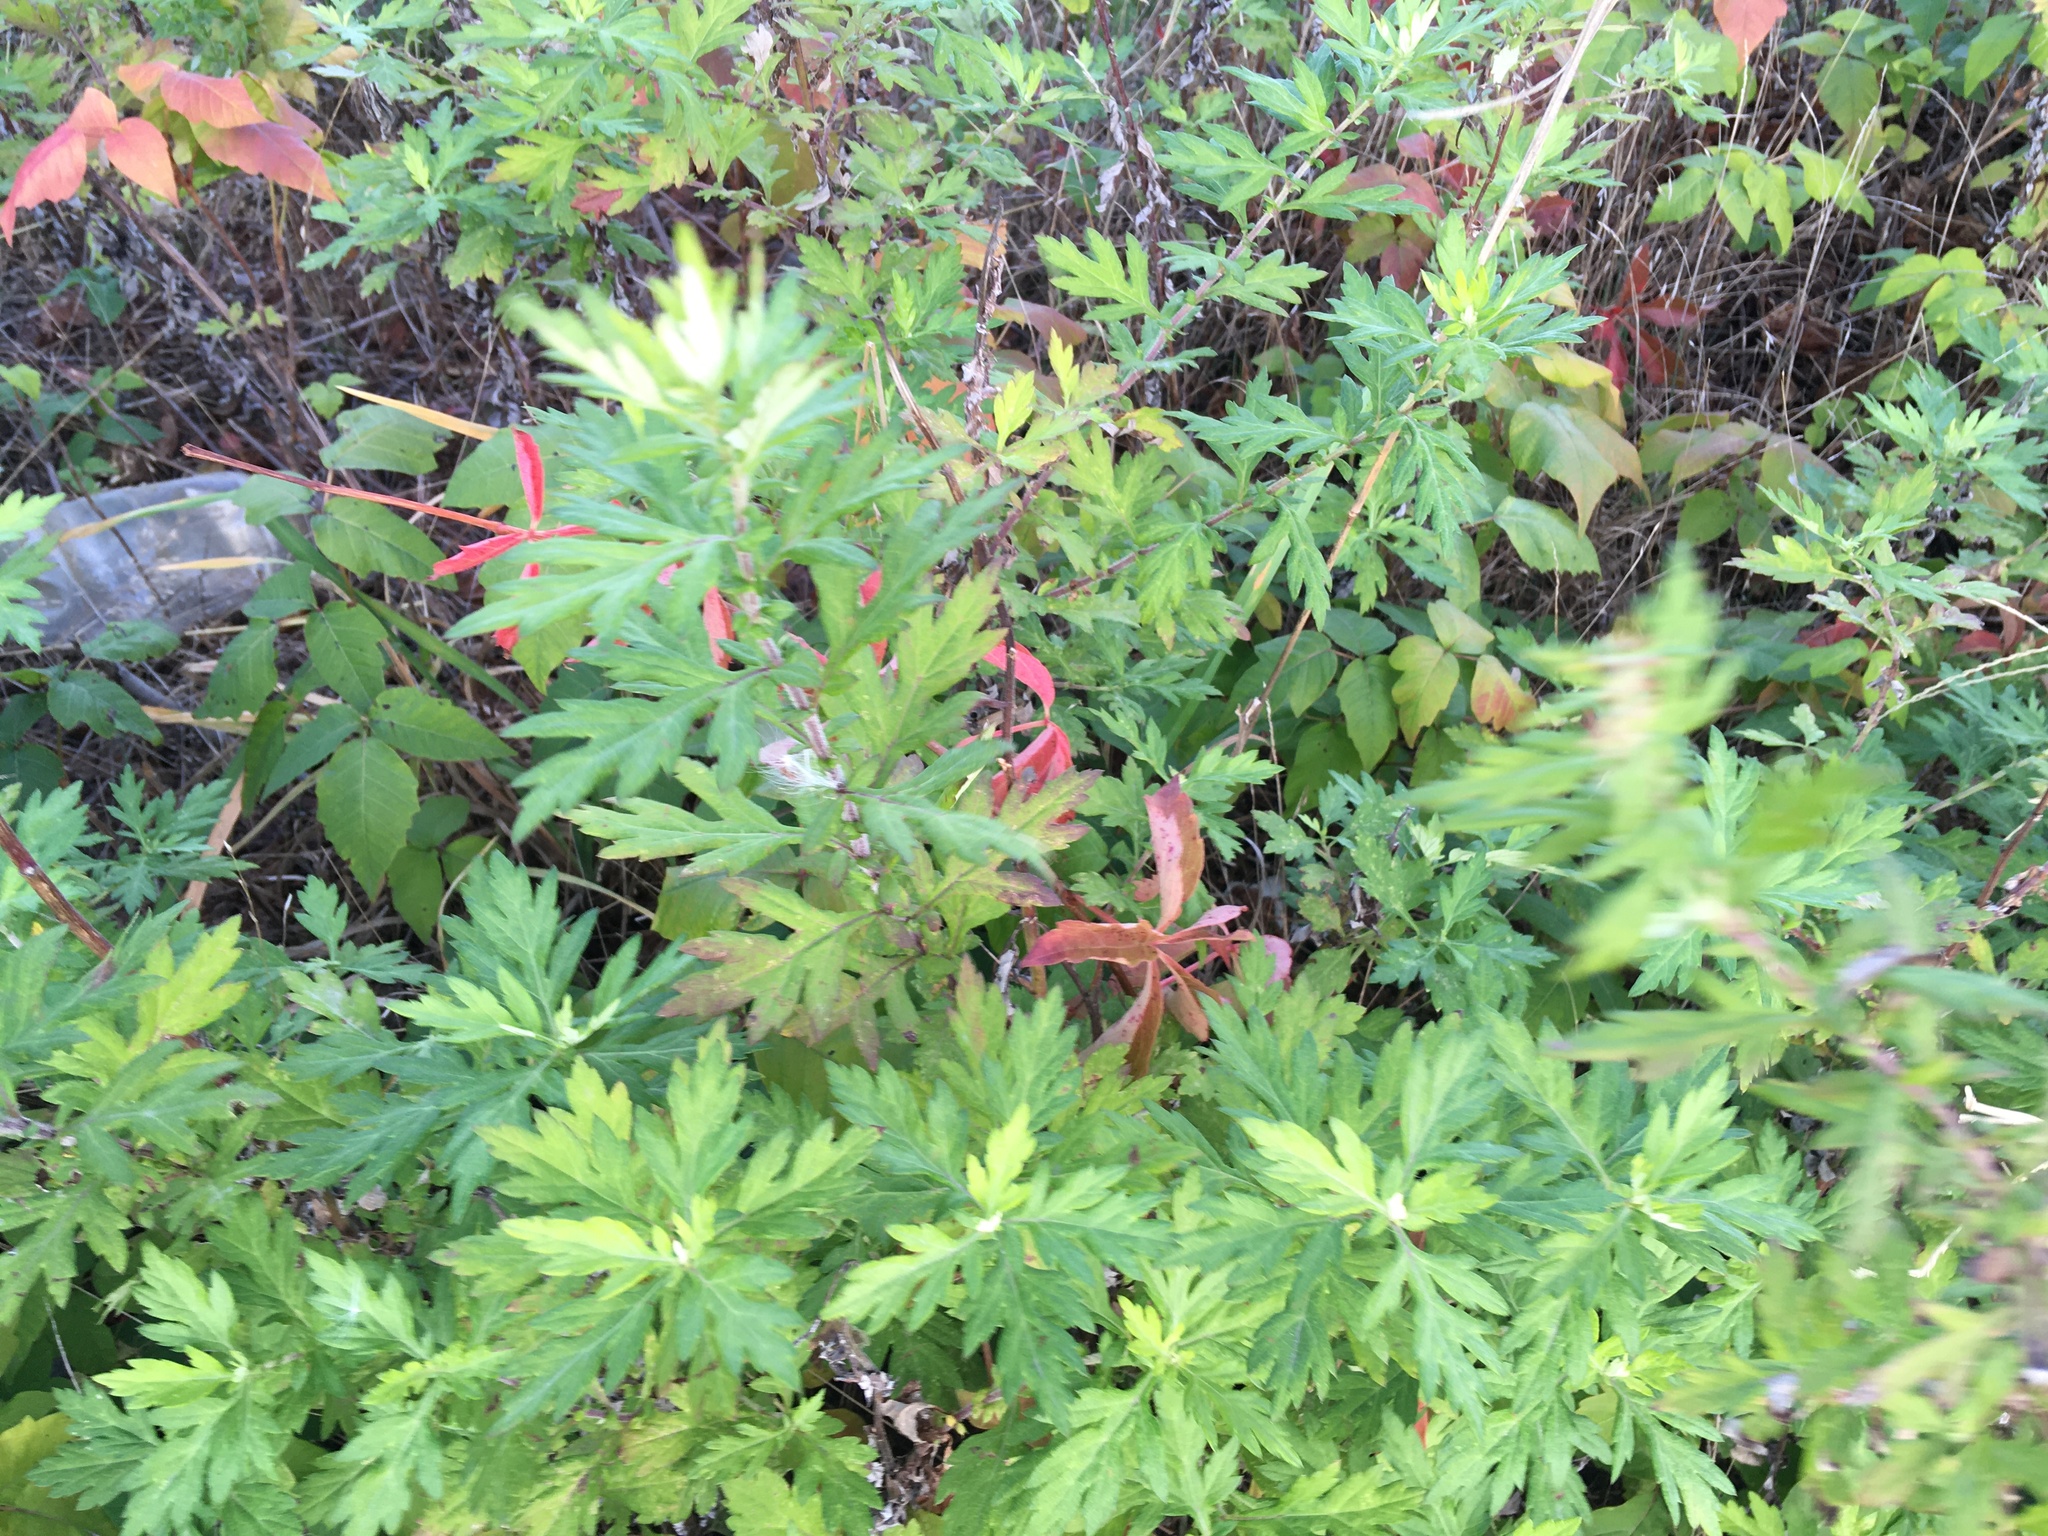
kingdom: Plantae
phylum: Tracheophyta
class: Magnoliopsida
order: Asterales
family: Asteraceae
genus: Artemisia
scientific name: Artemisia vulgaris
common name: Mugwort
